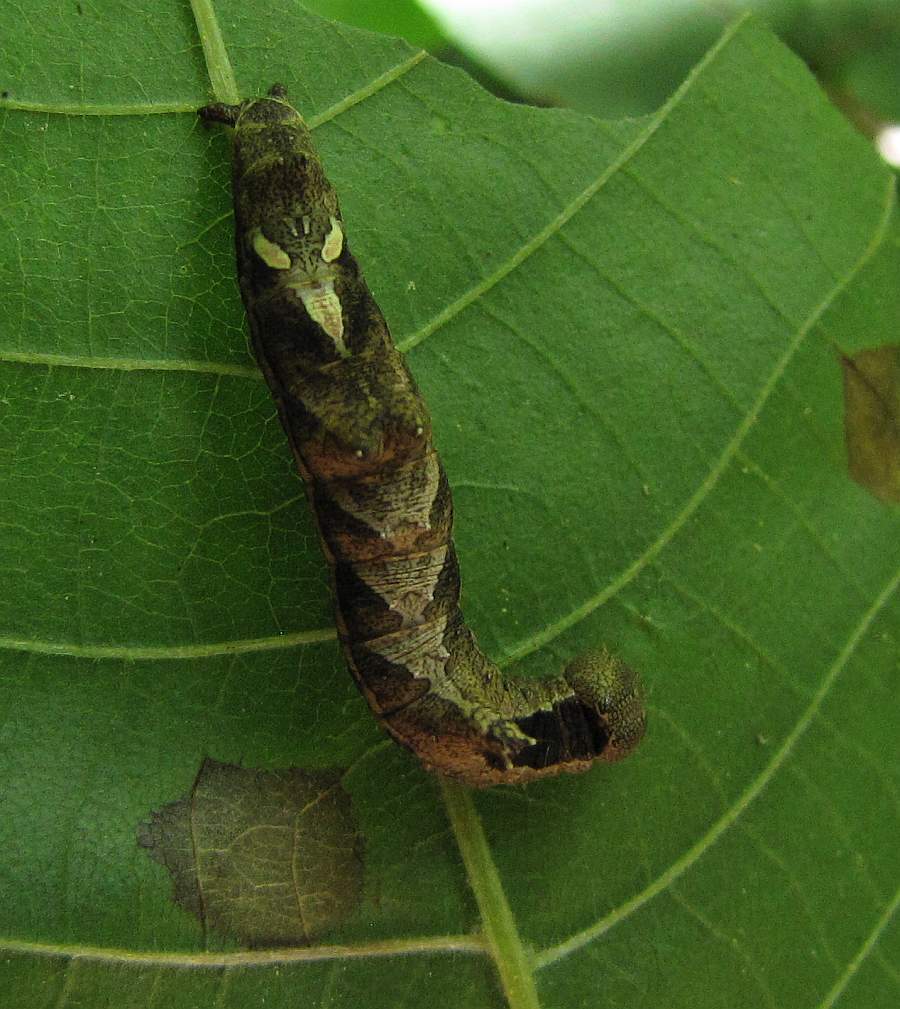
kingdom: Animalia
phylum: Arthropoda
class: Insecta
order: Lepidoptera
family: Notodontidae
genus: Schizura
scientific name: Schizura
